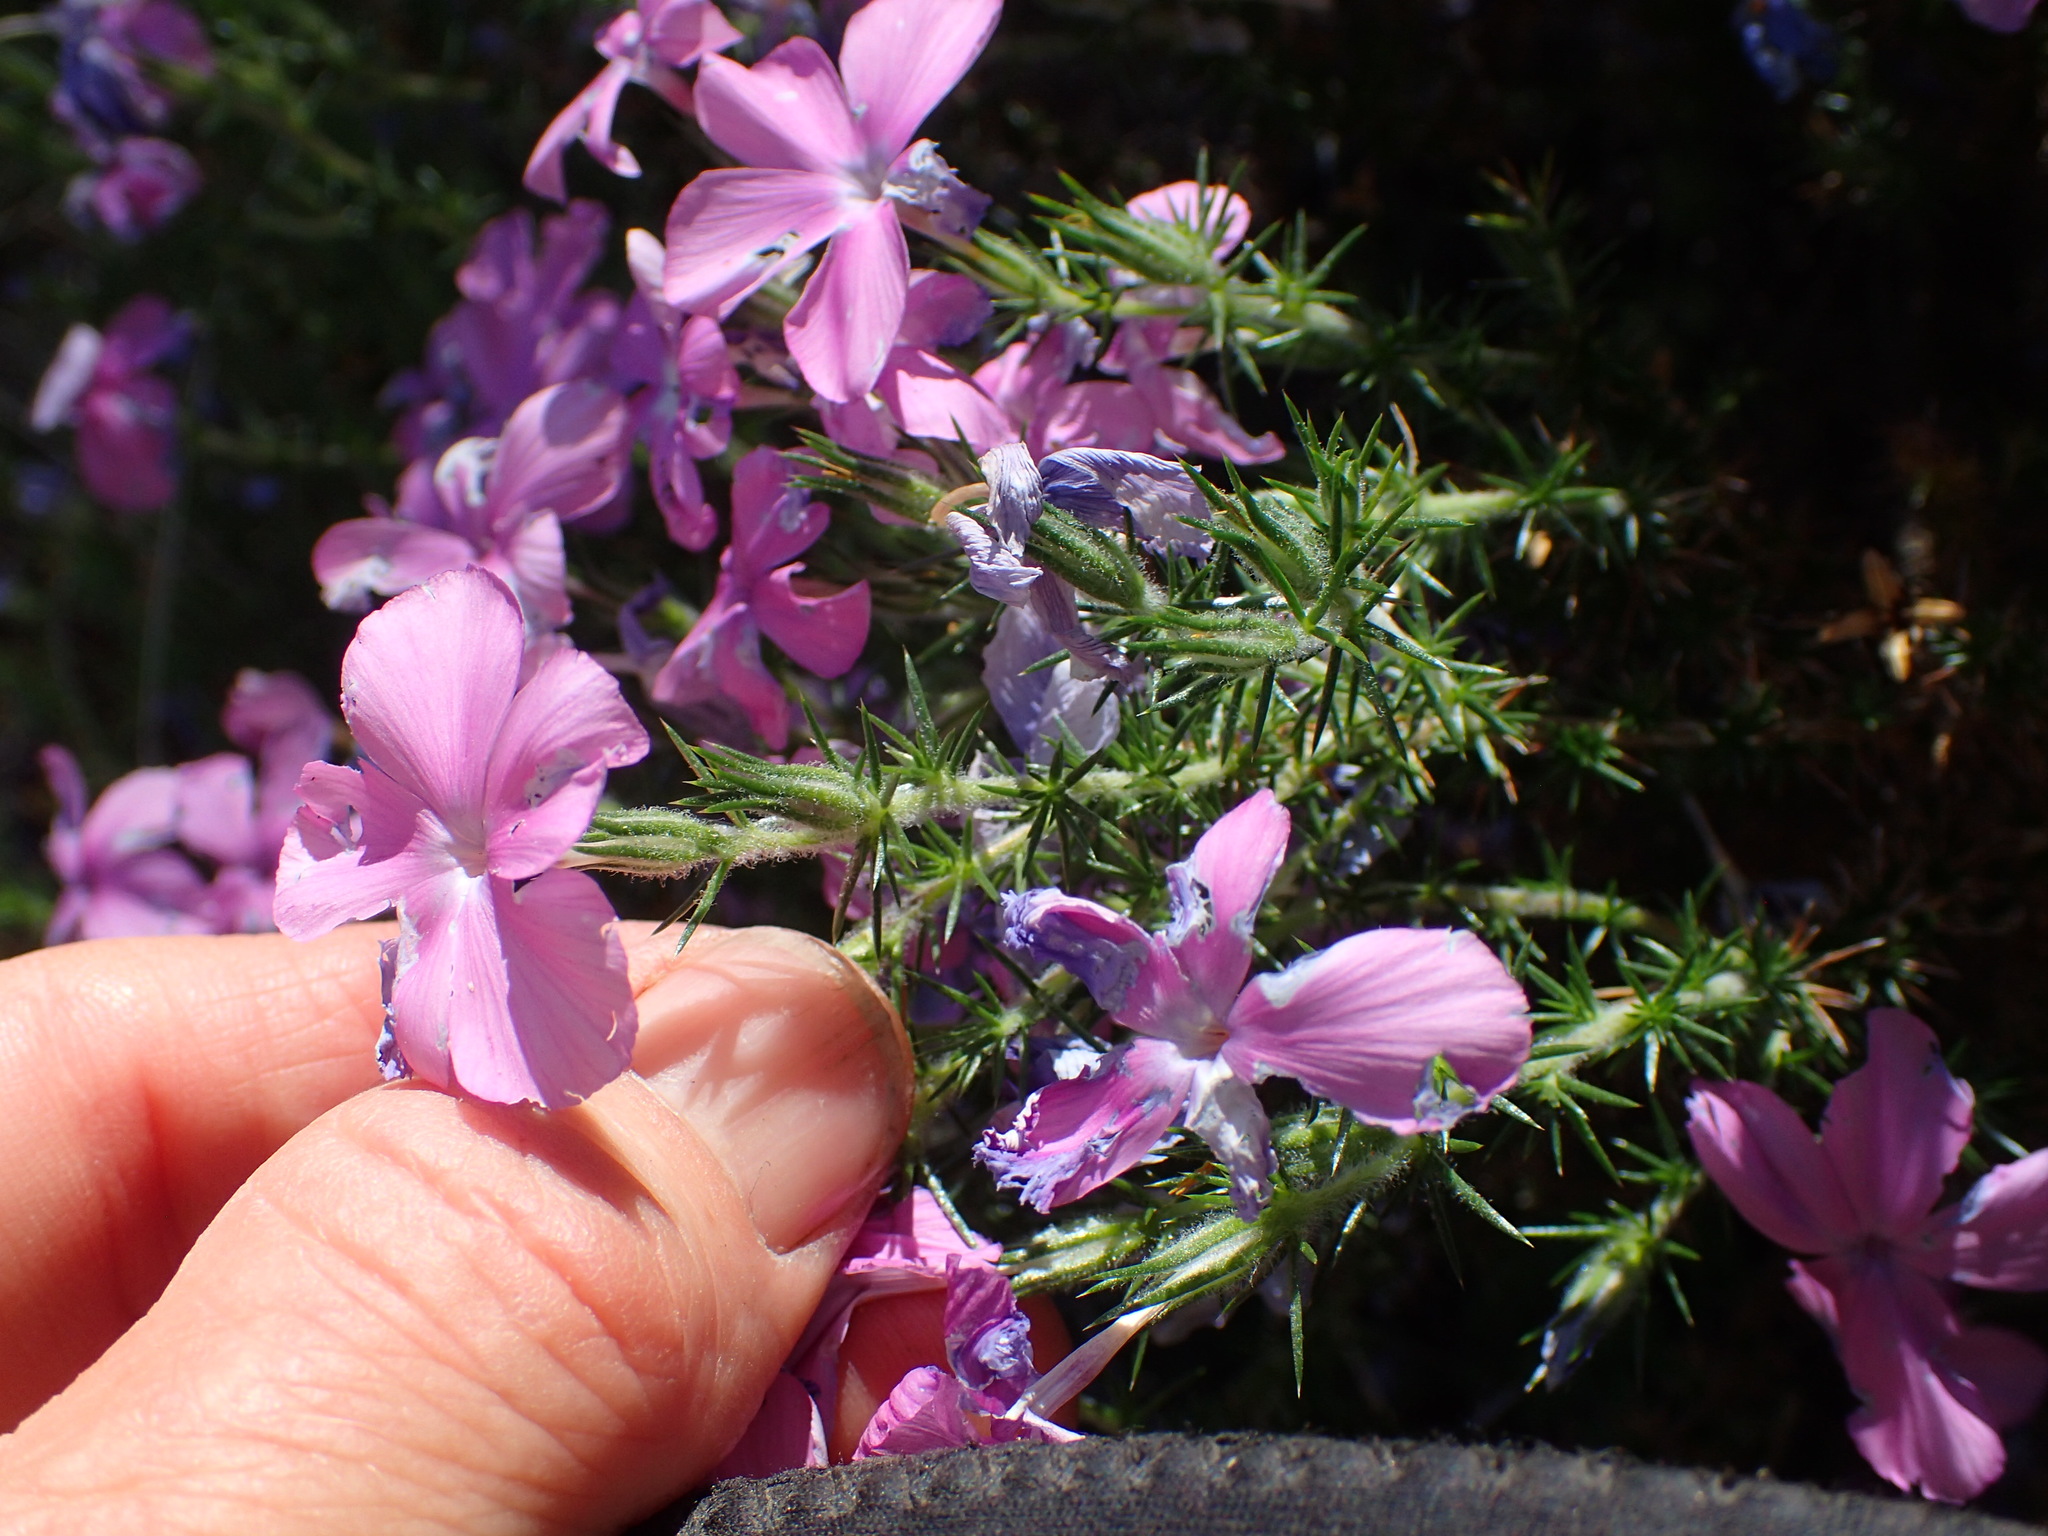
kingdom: Plantae
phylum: Tracheophyta
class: Magnoliopsida
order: Ericales
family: Polemoniaceae
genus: Linanthus
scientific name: Linanthus californicus
